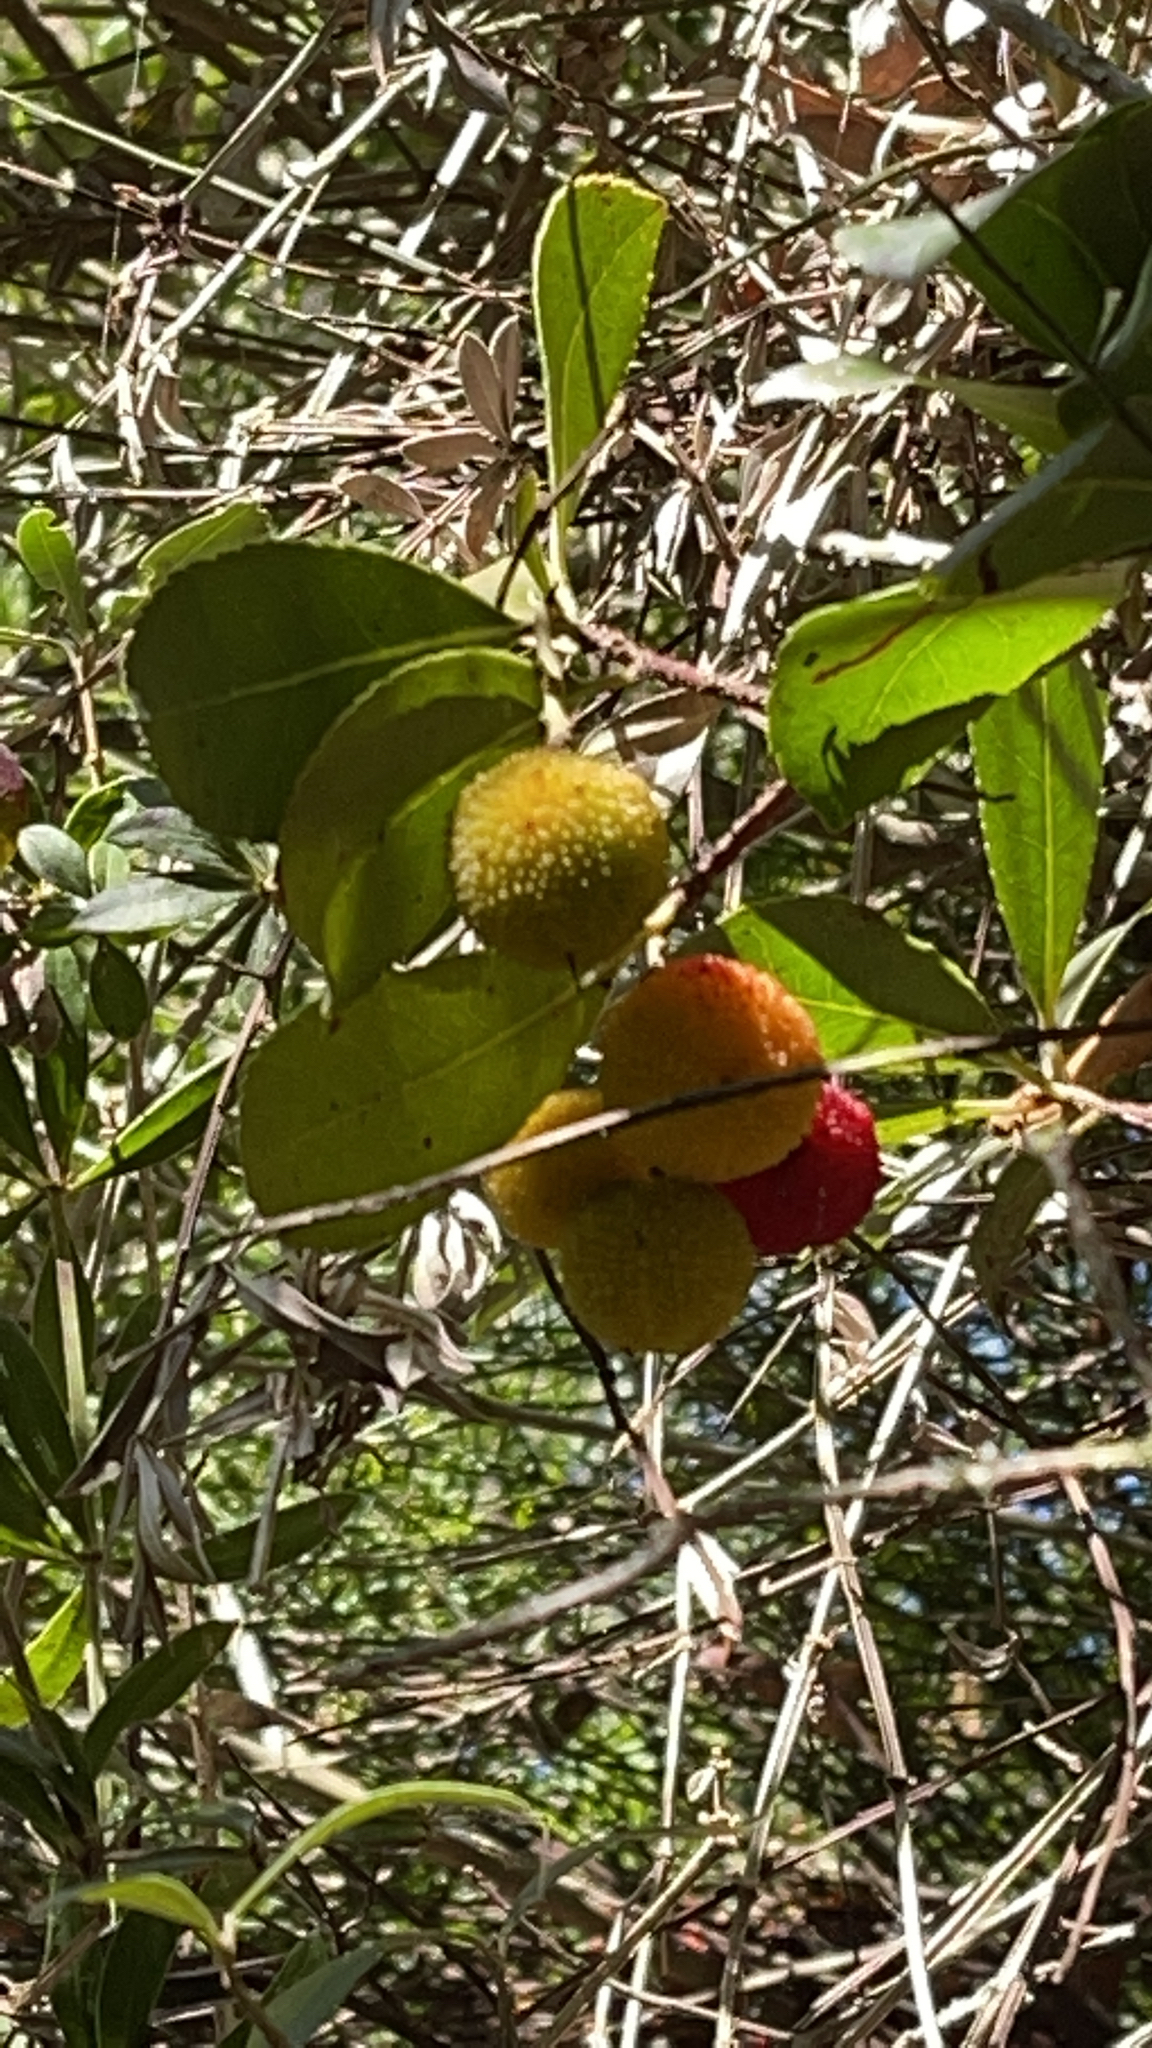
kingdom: Plantae
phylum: Tracheophyta
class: Magnoliopsida
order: Ericales
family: Ericaceae
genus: Arbutus
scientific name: Arbutus unedo
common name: Strawberry-tree
